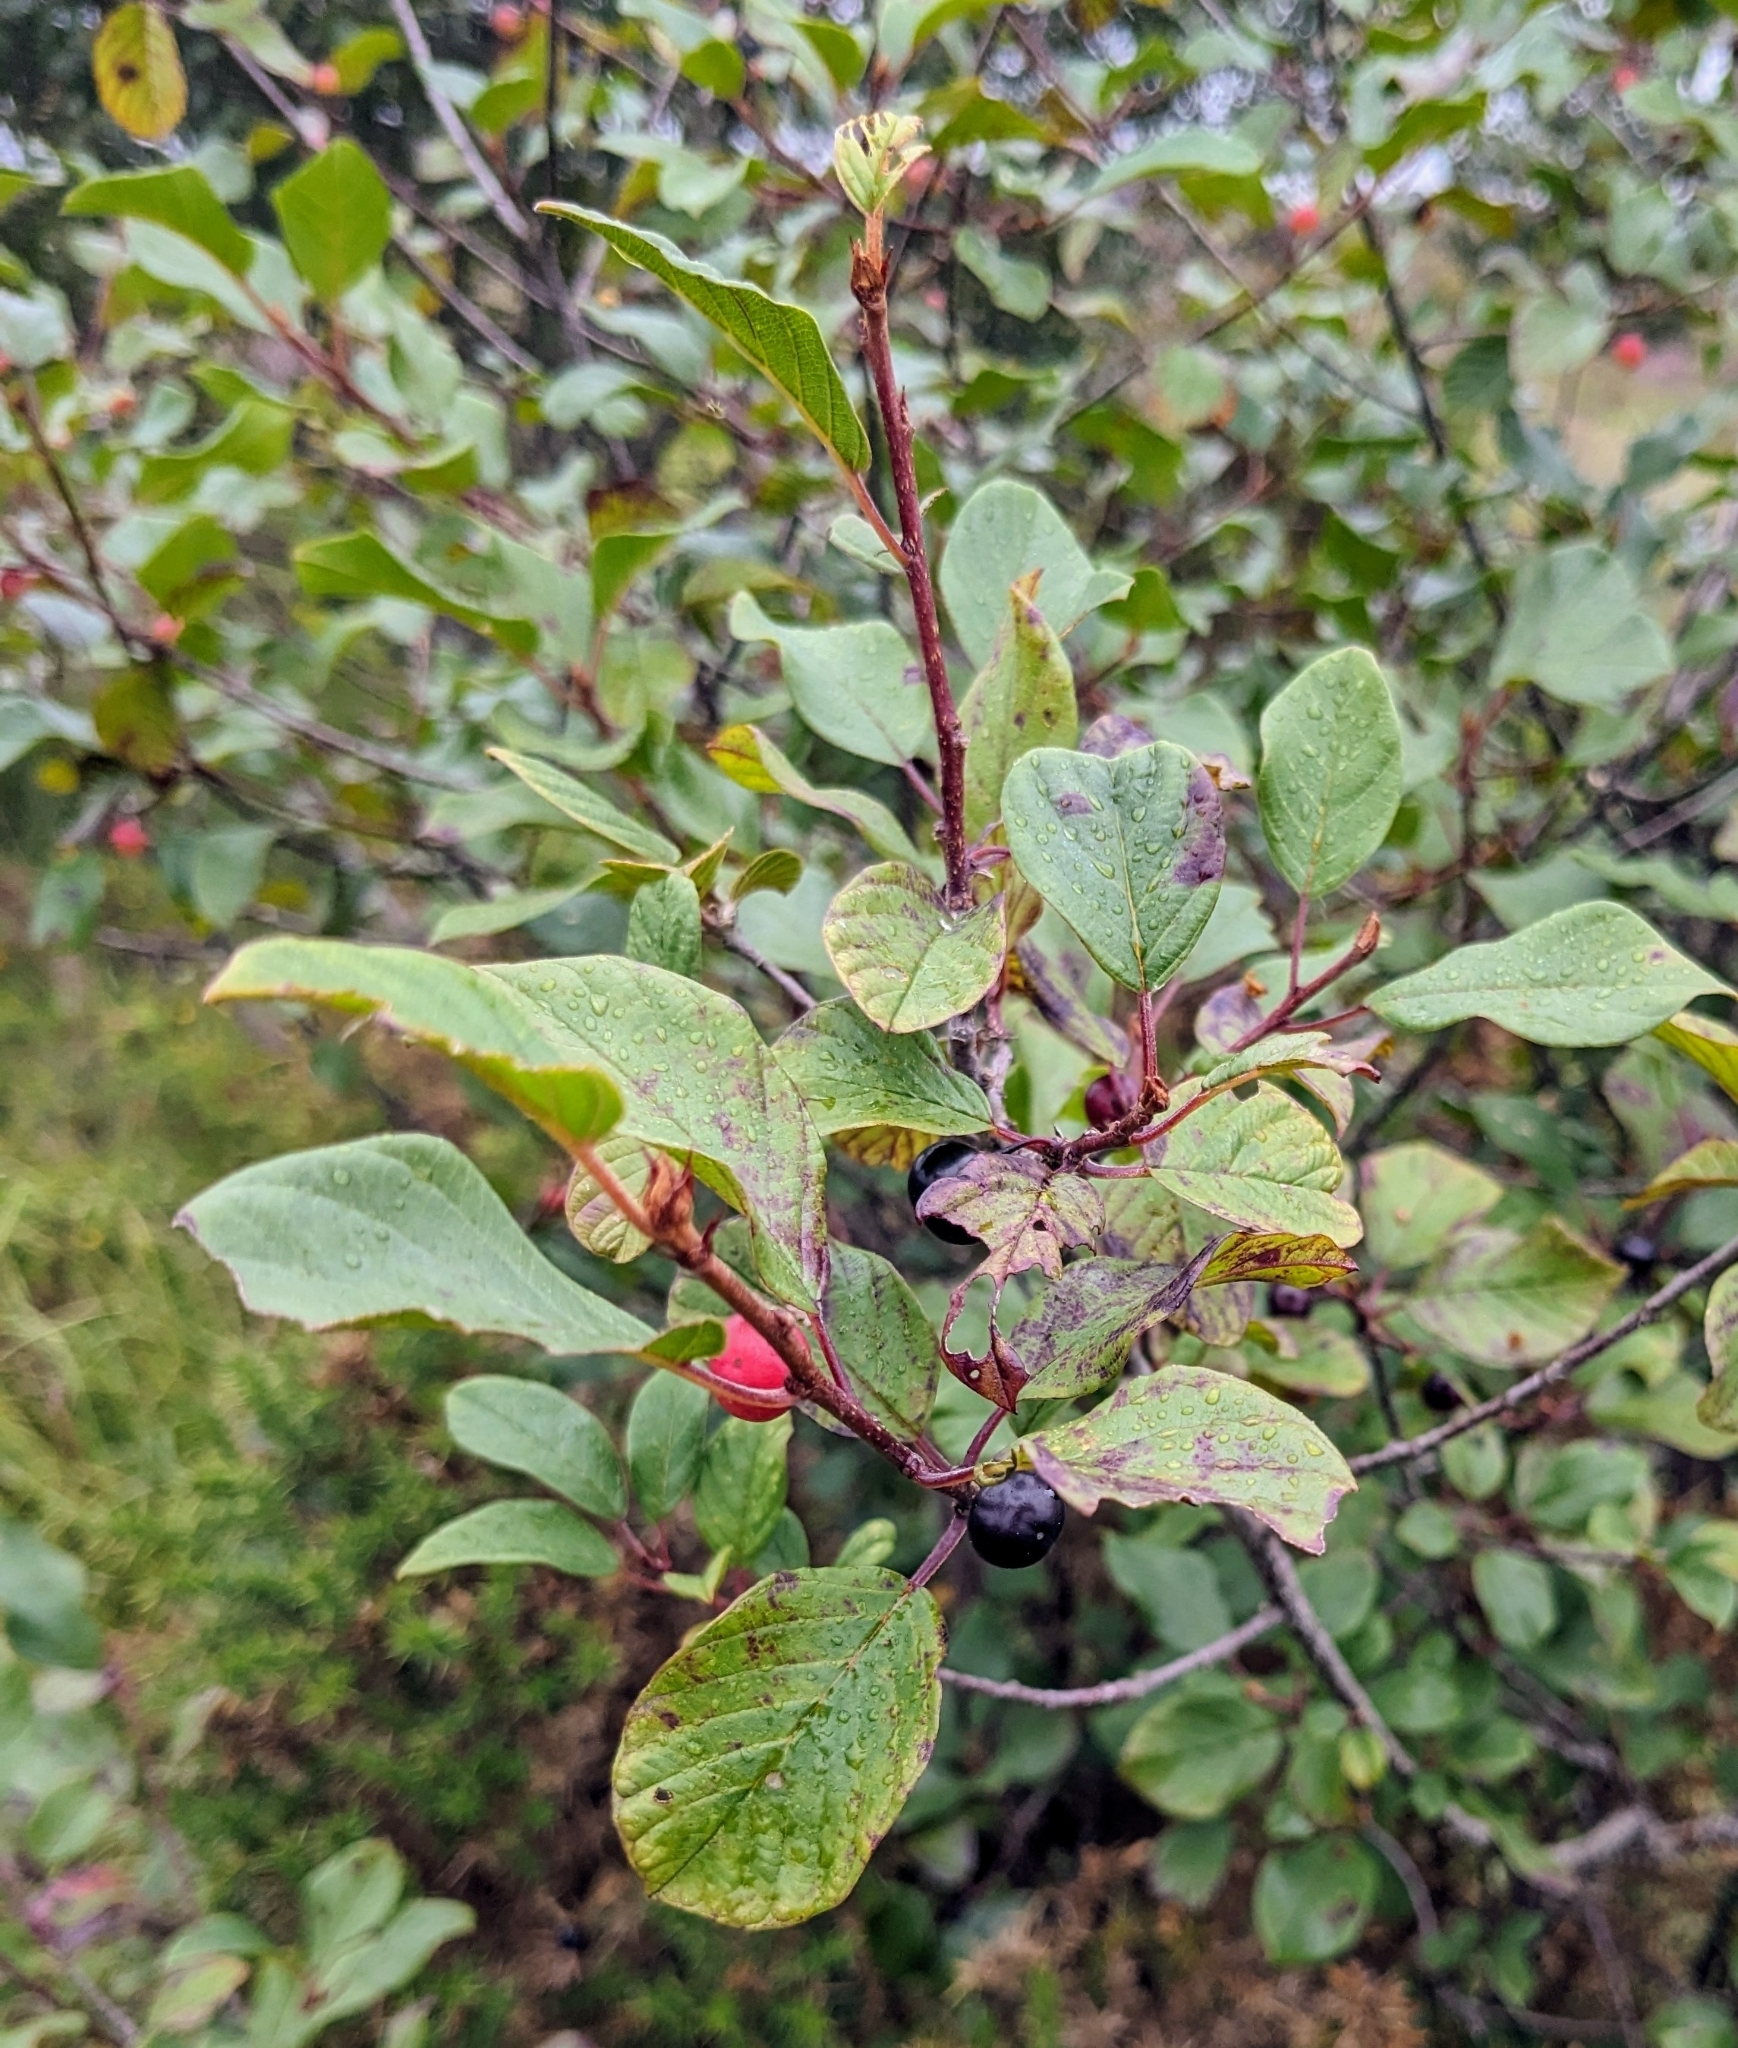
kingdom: Plantae
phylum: Tracheophyta
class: Magnoliopsida
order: Rosales
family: Rhamnaceae
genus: Frangula
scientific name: Frangula alnus
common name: Alder buckthorn
